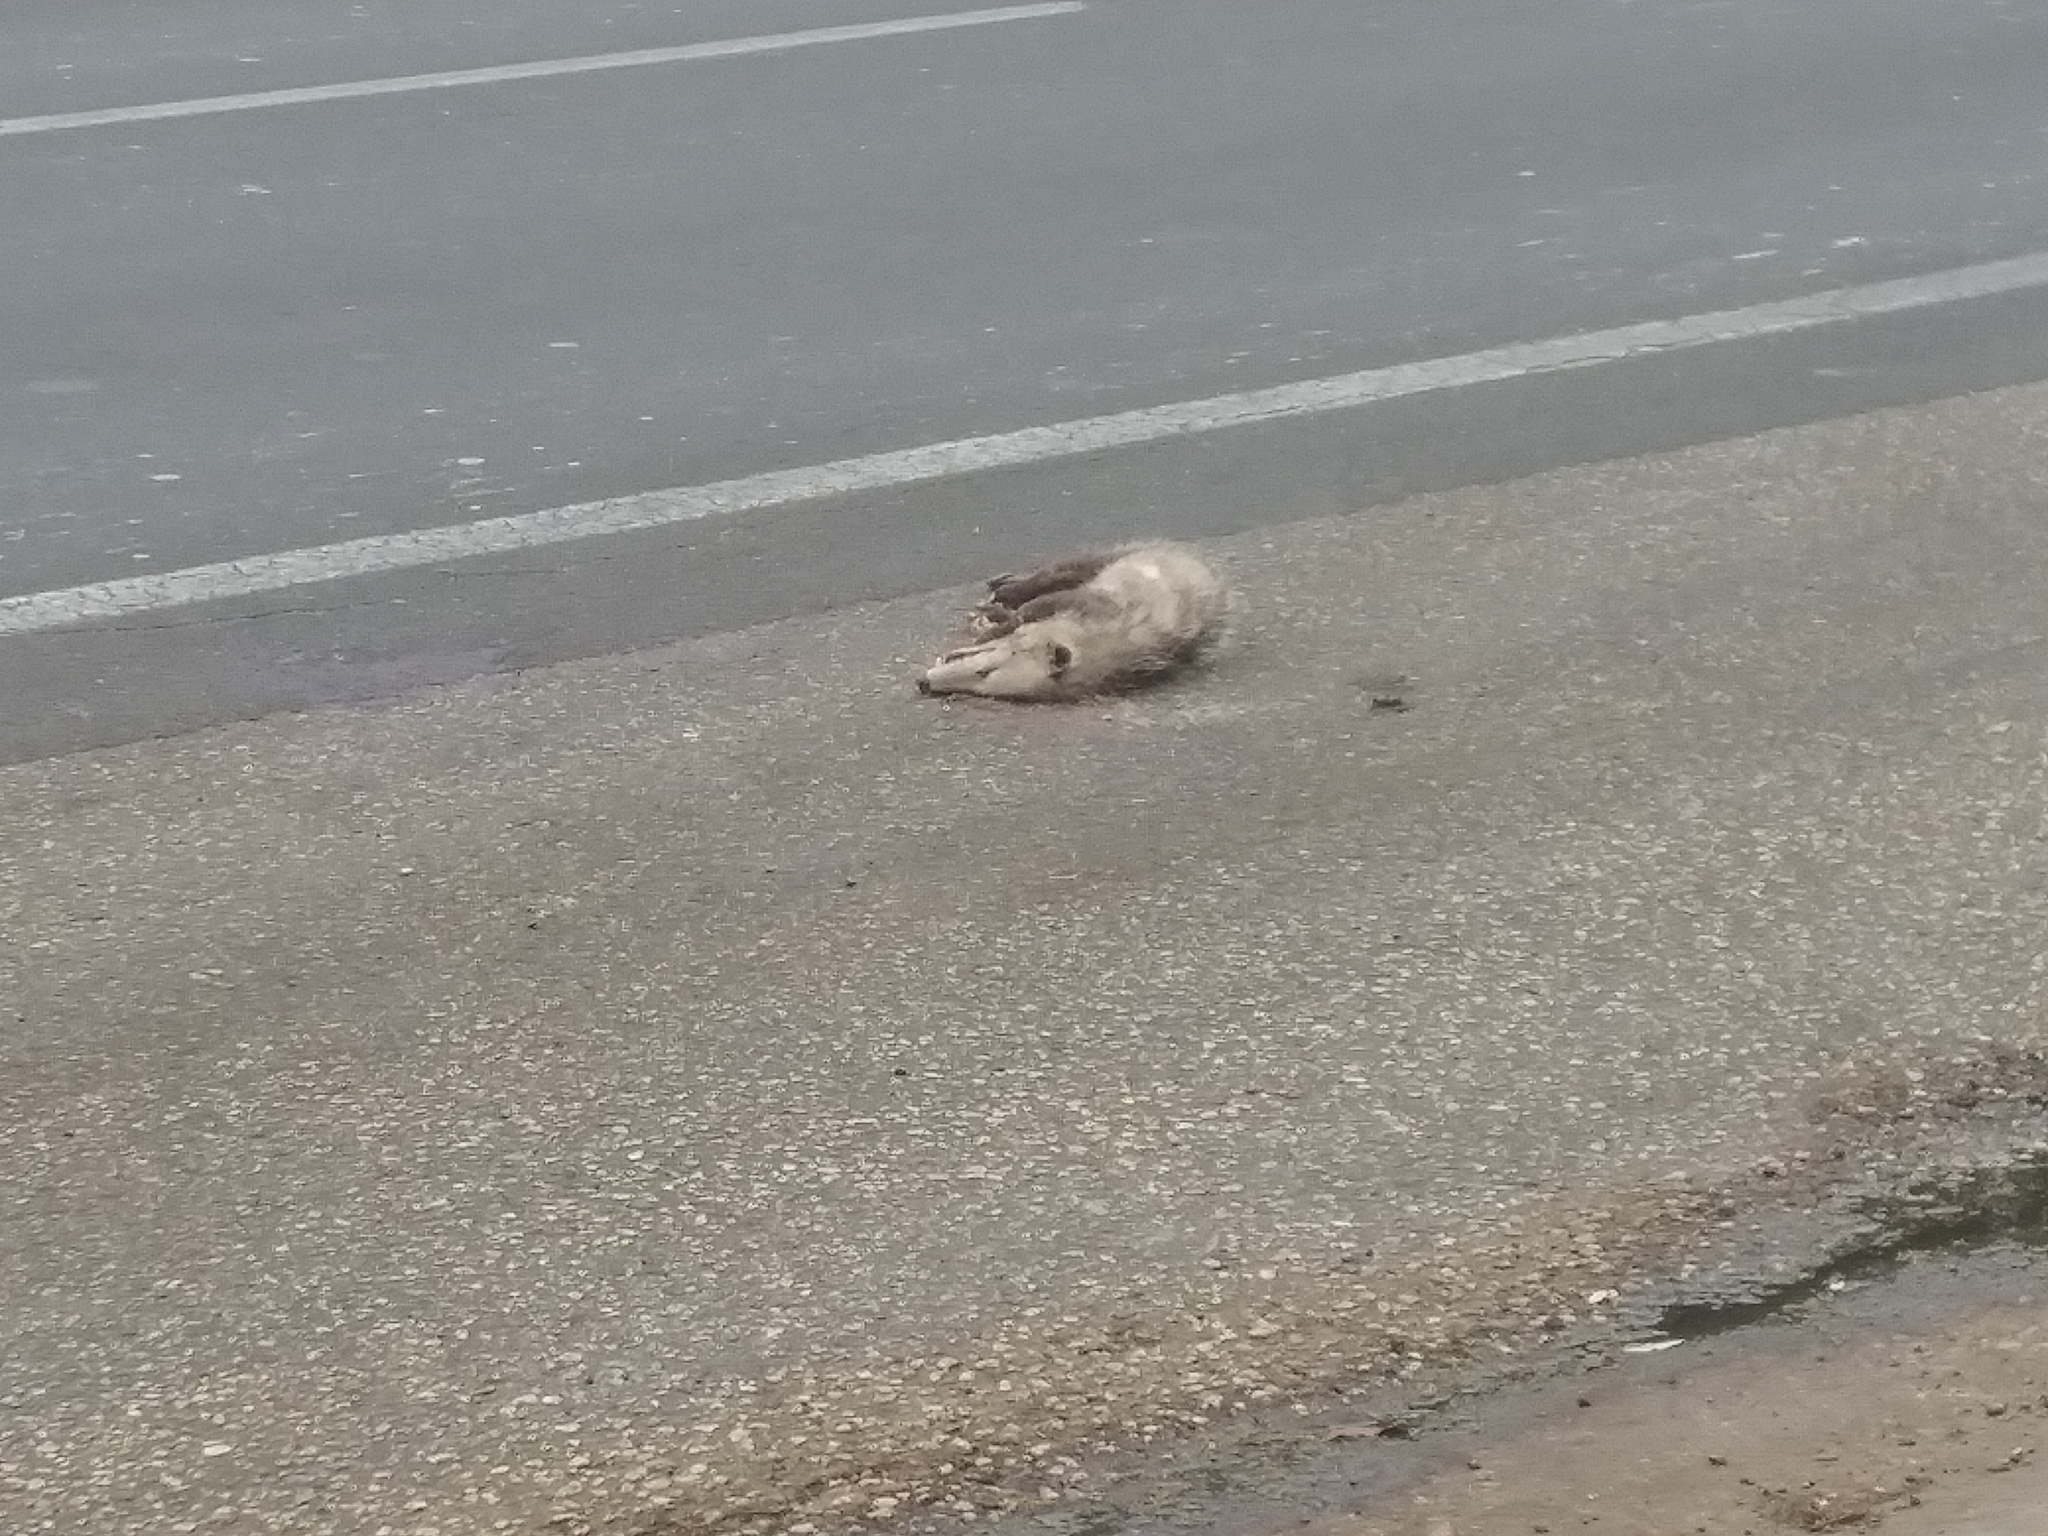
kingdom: Animalia
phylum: Chordata
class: Mammalia
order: Didelphimorphia
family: Didelphidae
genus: Didelphis
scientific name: Didelphis virginiana
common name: Virginia opossum
